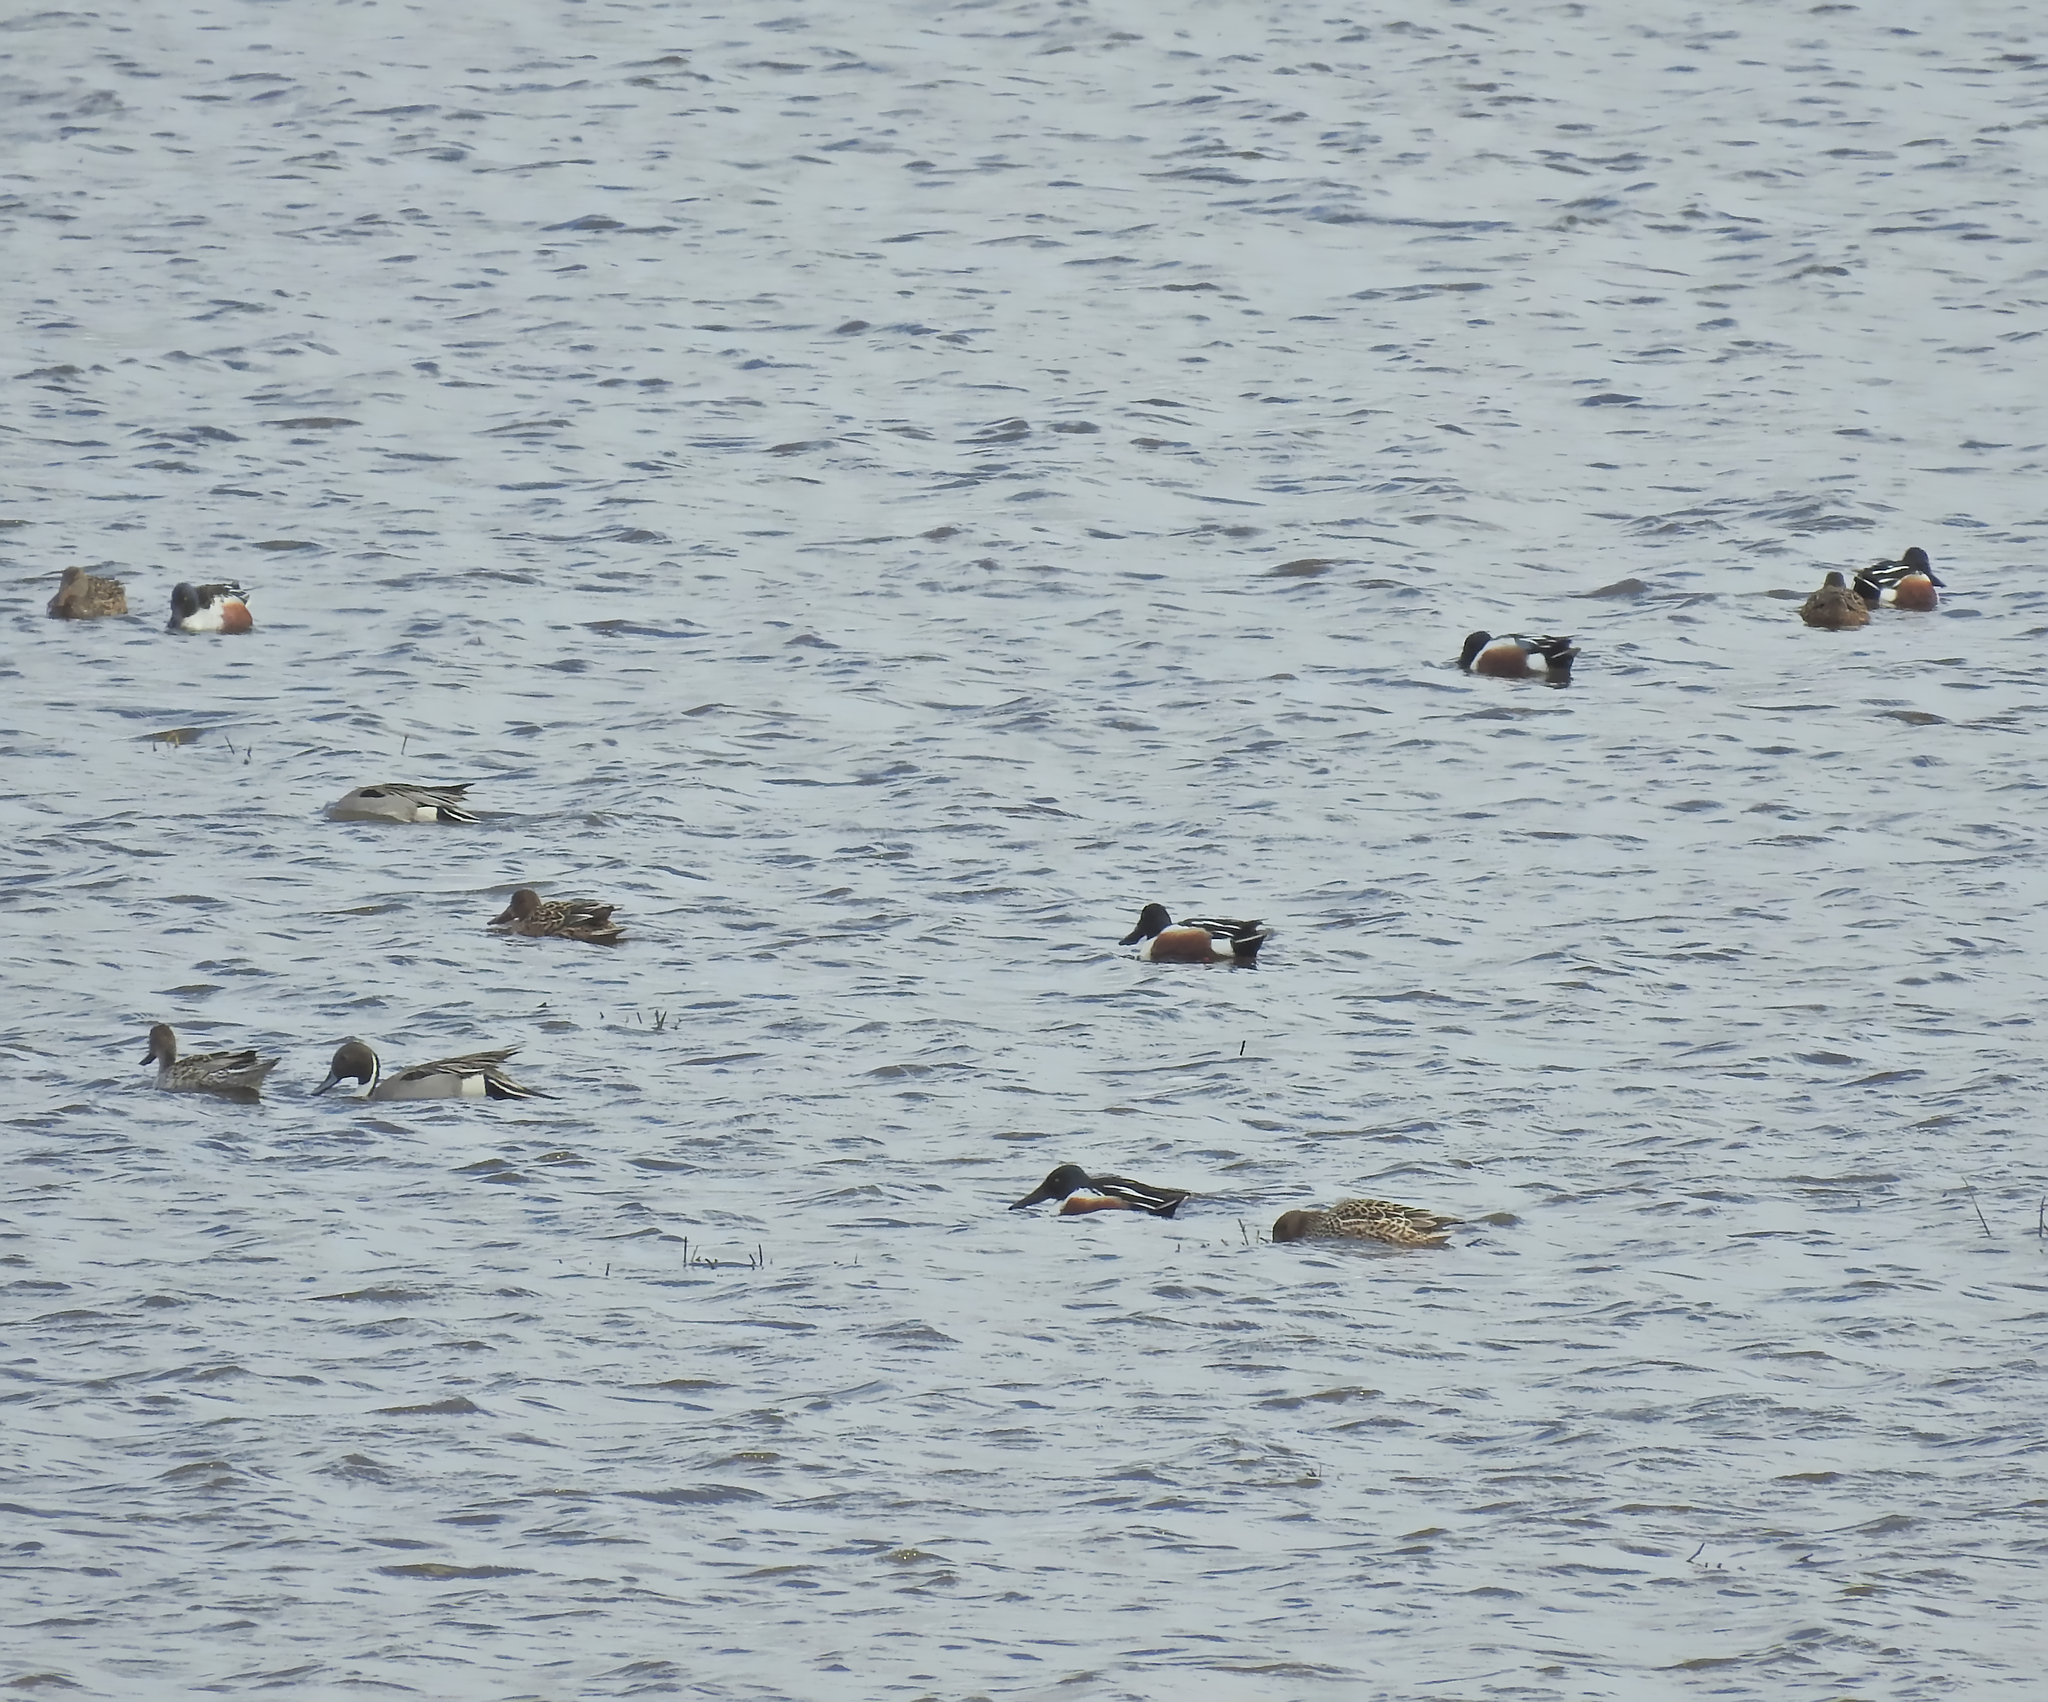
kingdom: Animalia
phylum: Chordata
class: Aves
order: Anseriformes
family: Anatidae
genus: Spatula
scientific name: Spatula clypeata
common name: Northern shoveler
